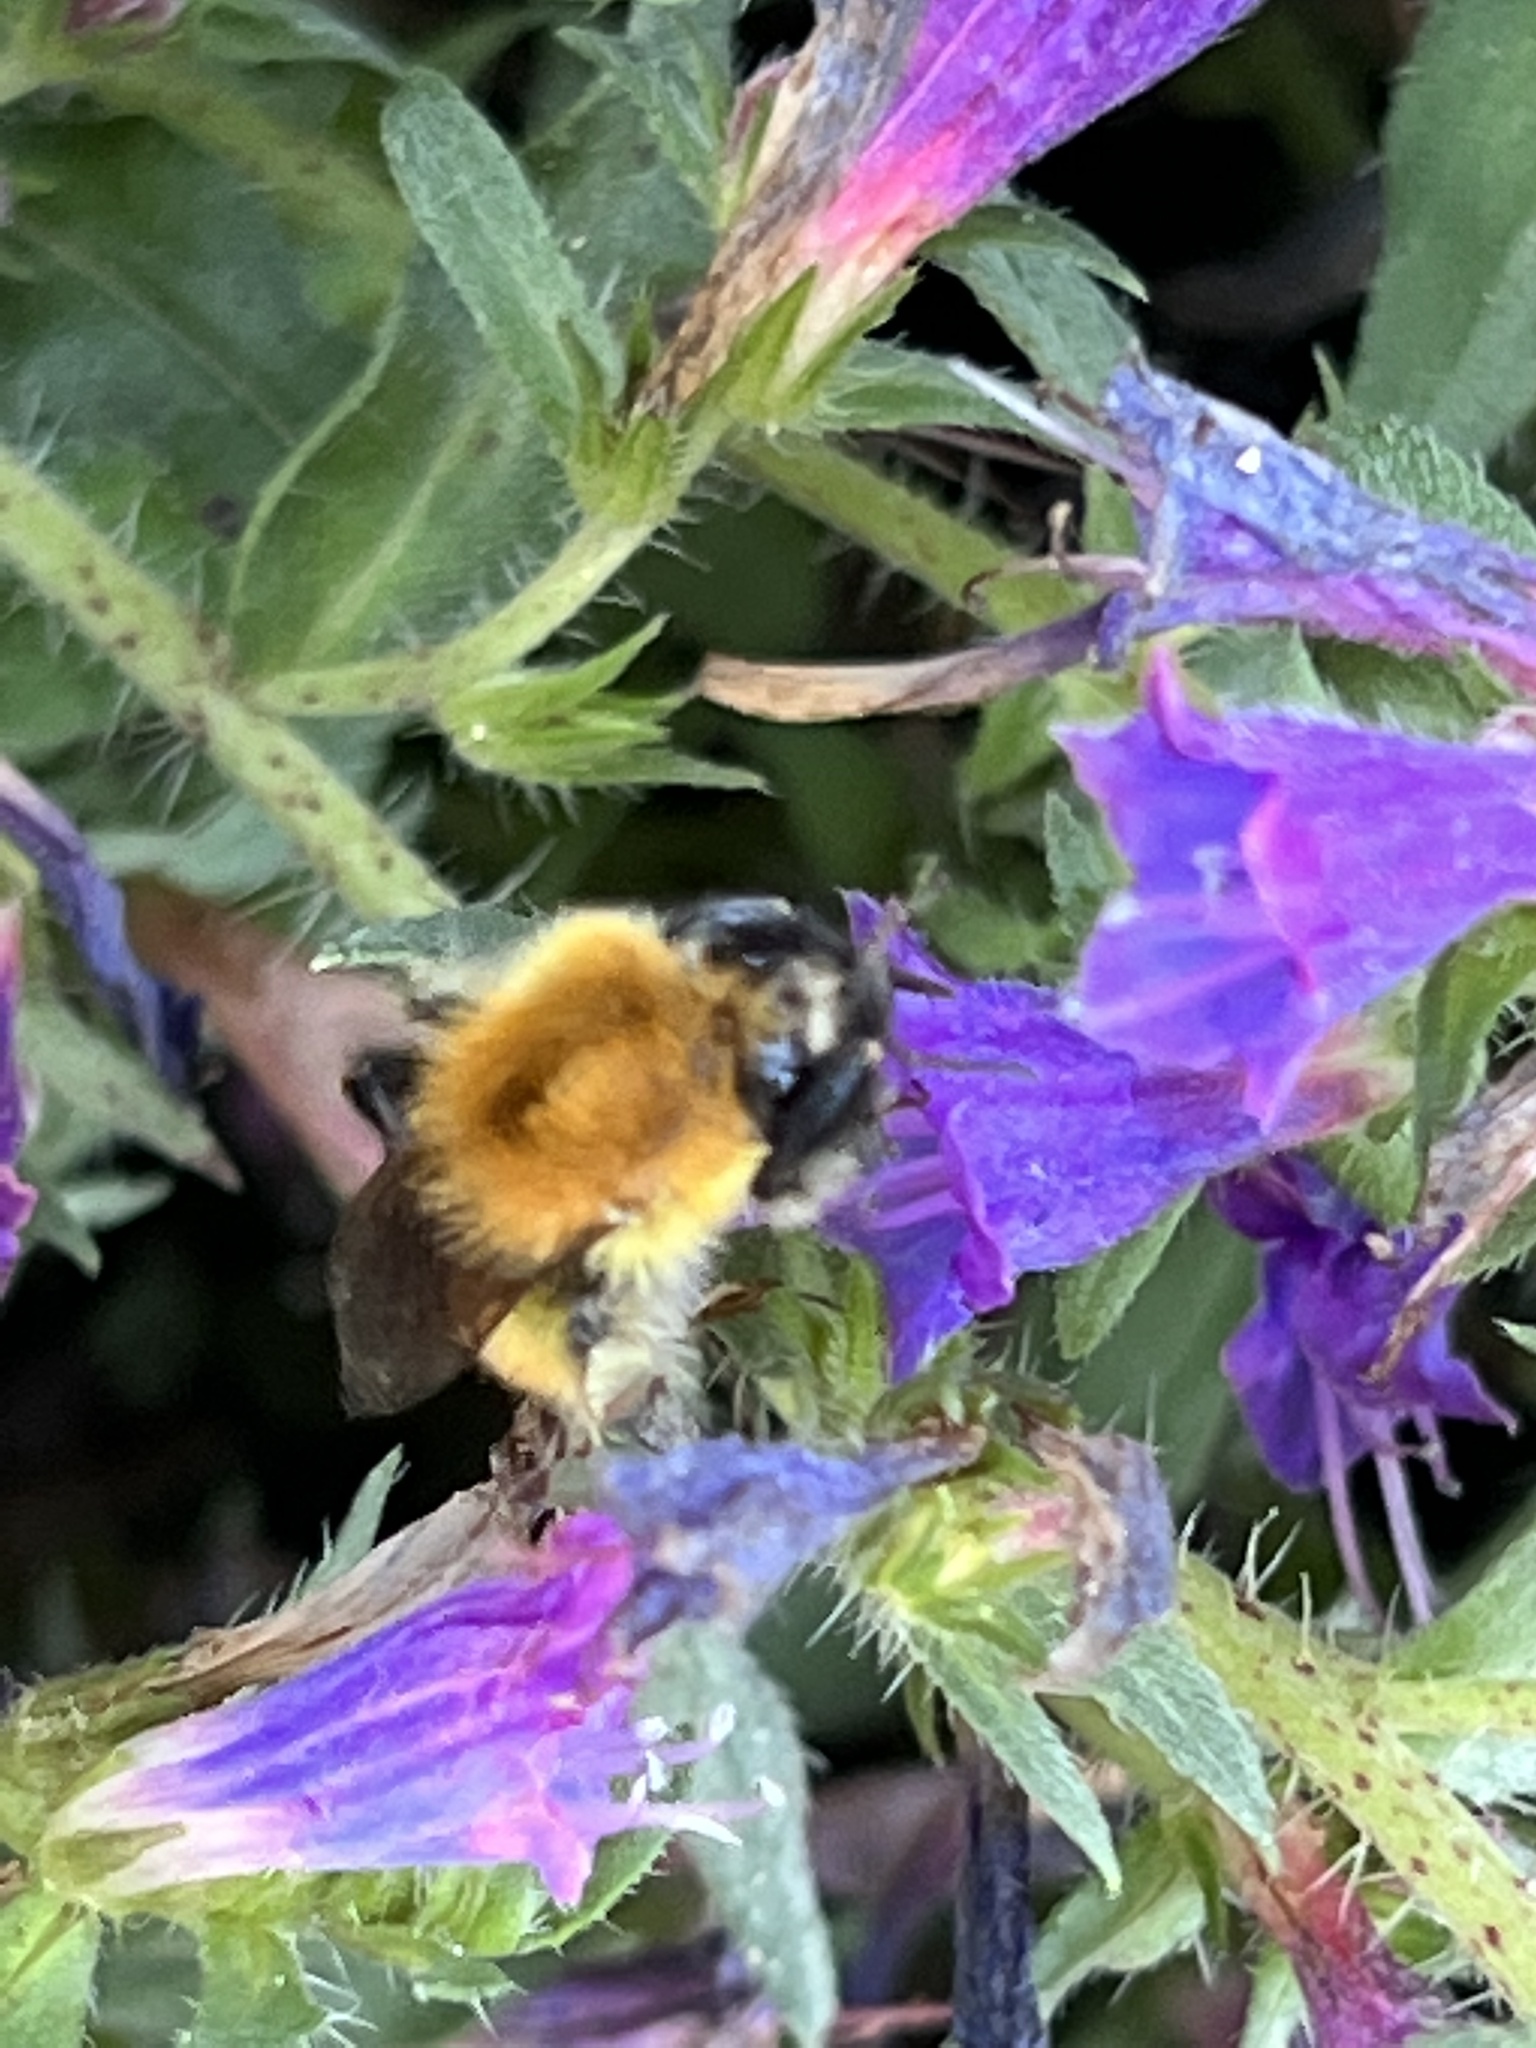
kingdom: Animalia
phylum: Arthropoda
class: Insecta
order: Hymenoptera
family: Apidae
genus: Bombus
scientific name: Bombus pascuorum
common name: Common carder bee
